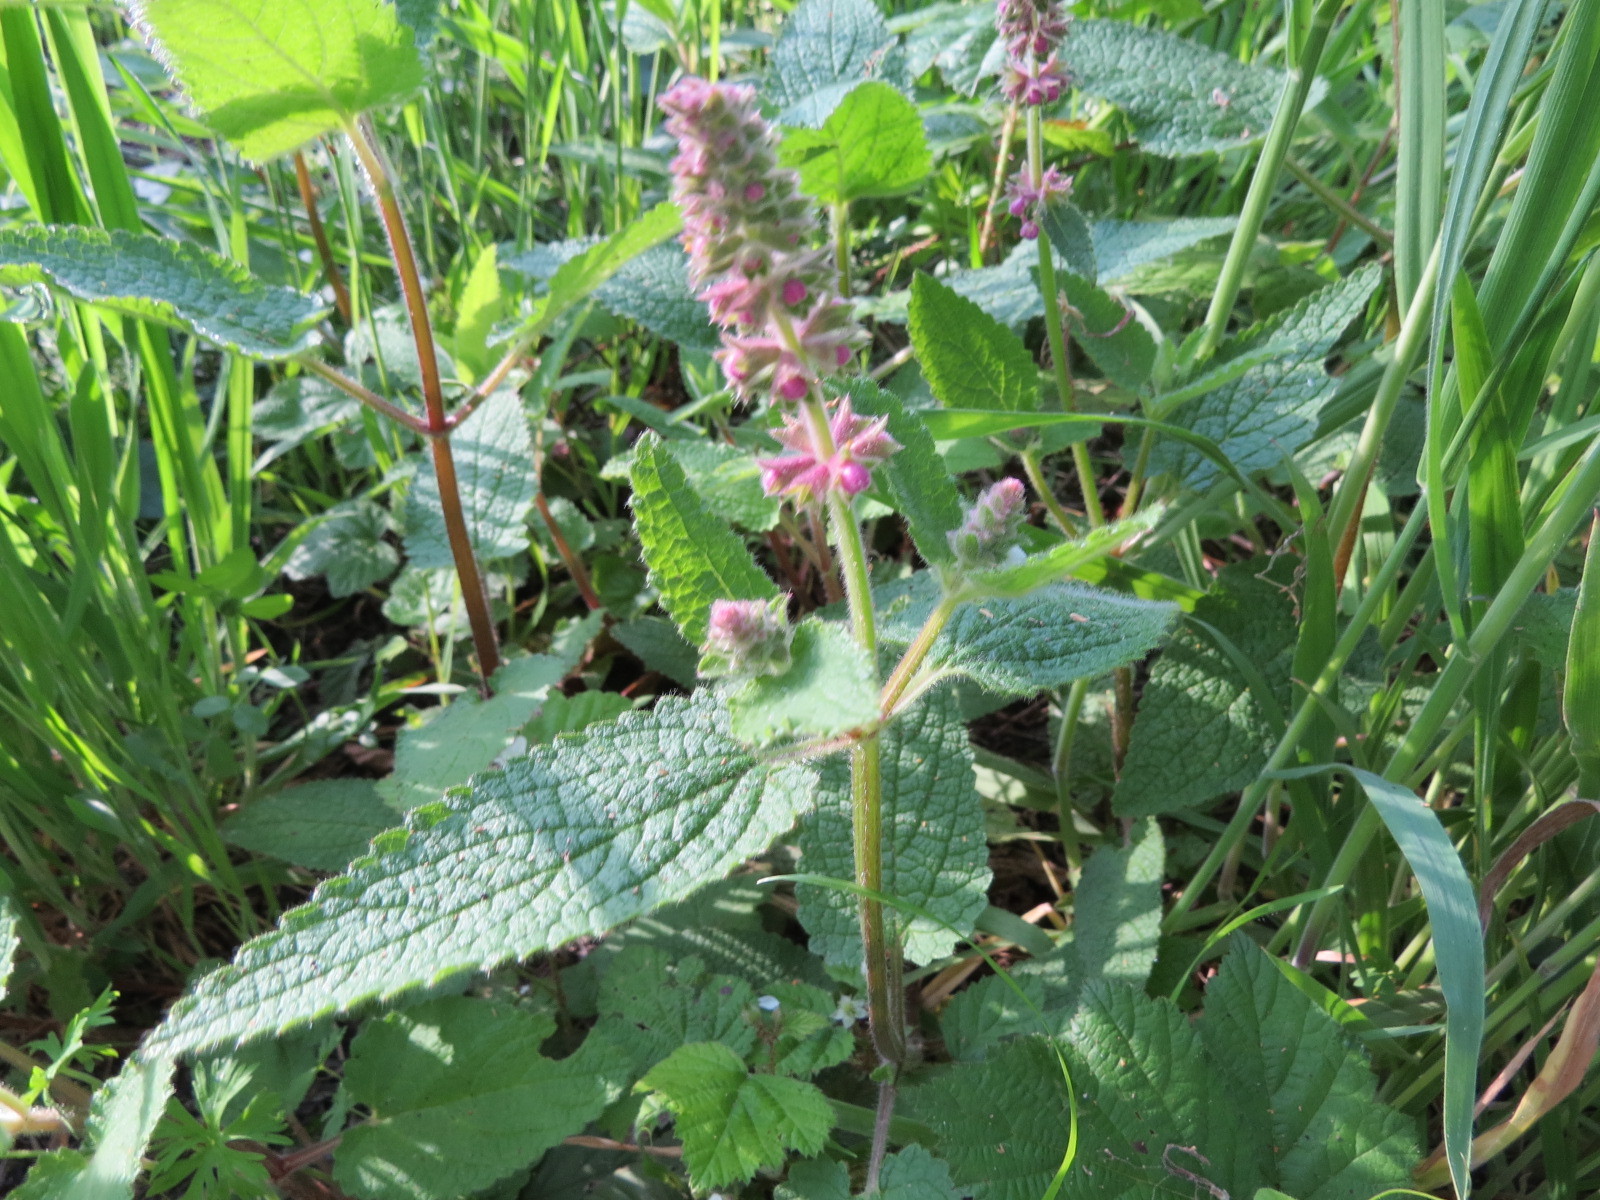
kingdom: Plantae
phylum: Tracheophyta
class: Magnoliopsida
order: Lamiales
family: Lamiaceae
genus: Stachys
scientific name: Stachys bullata
